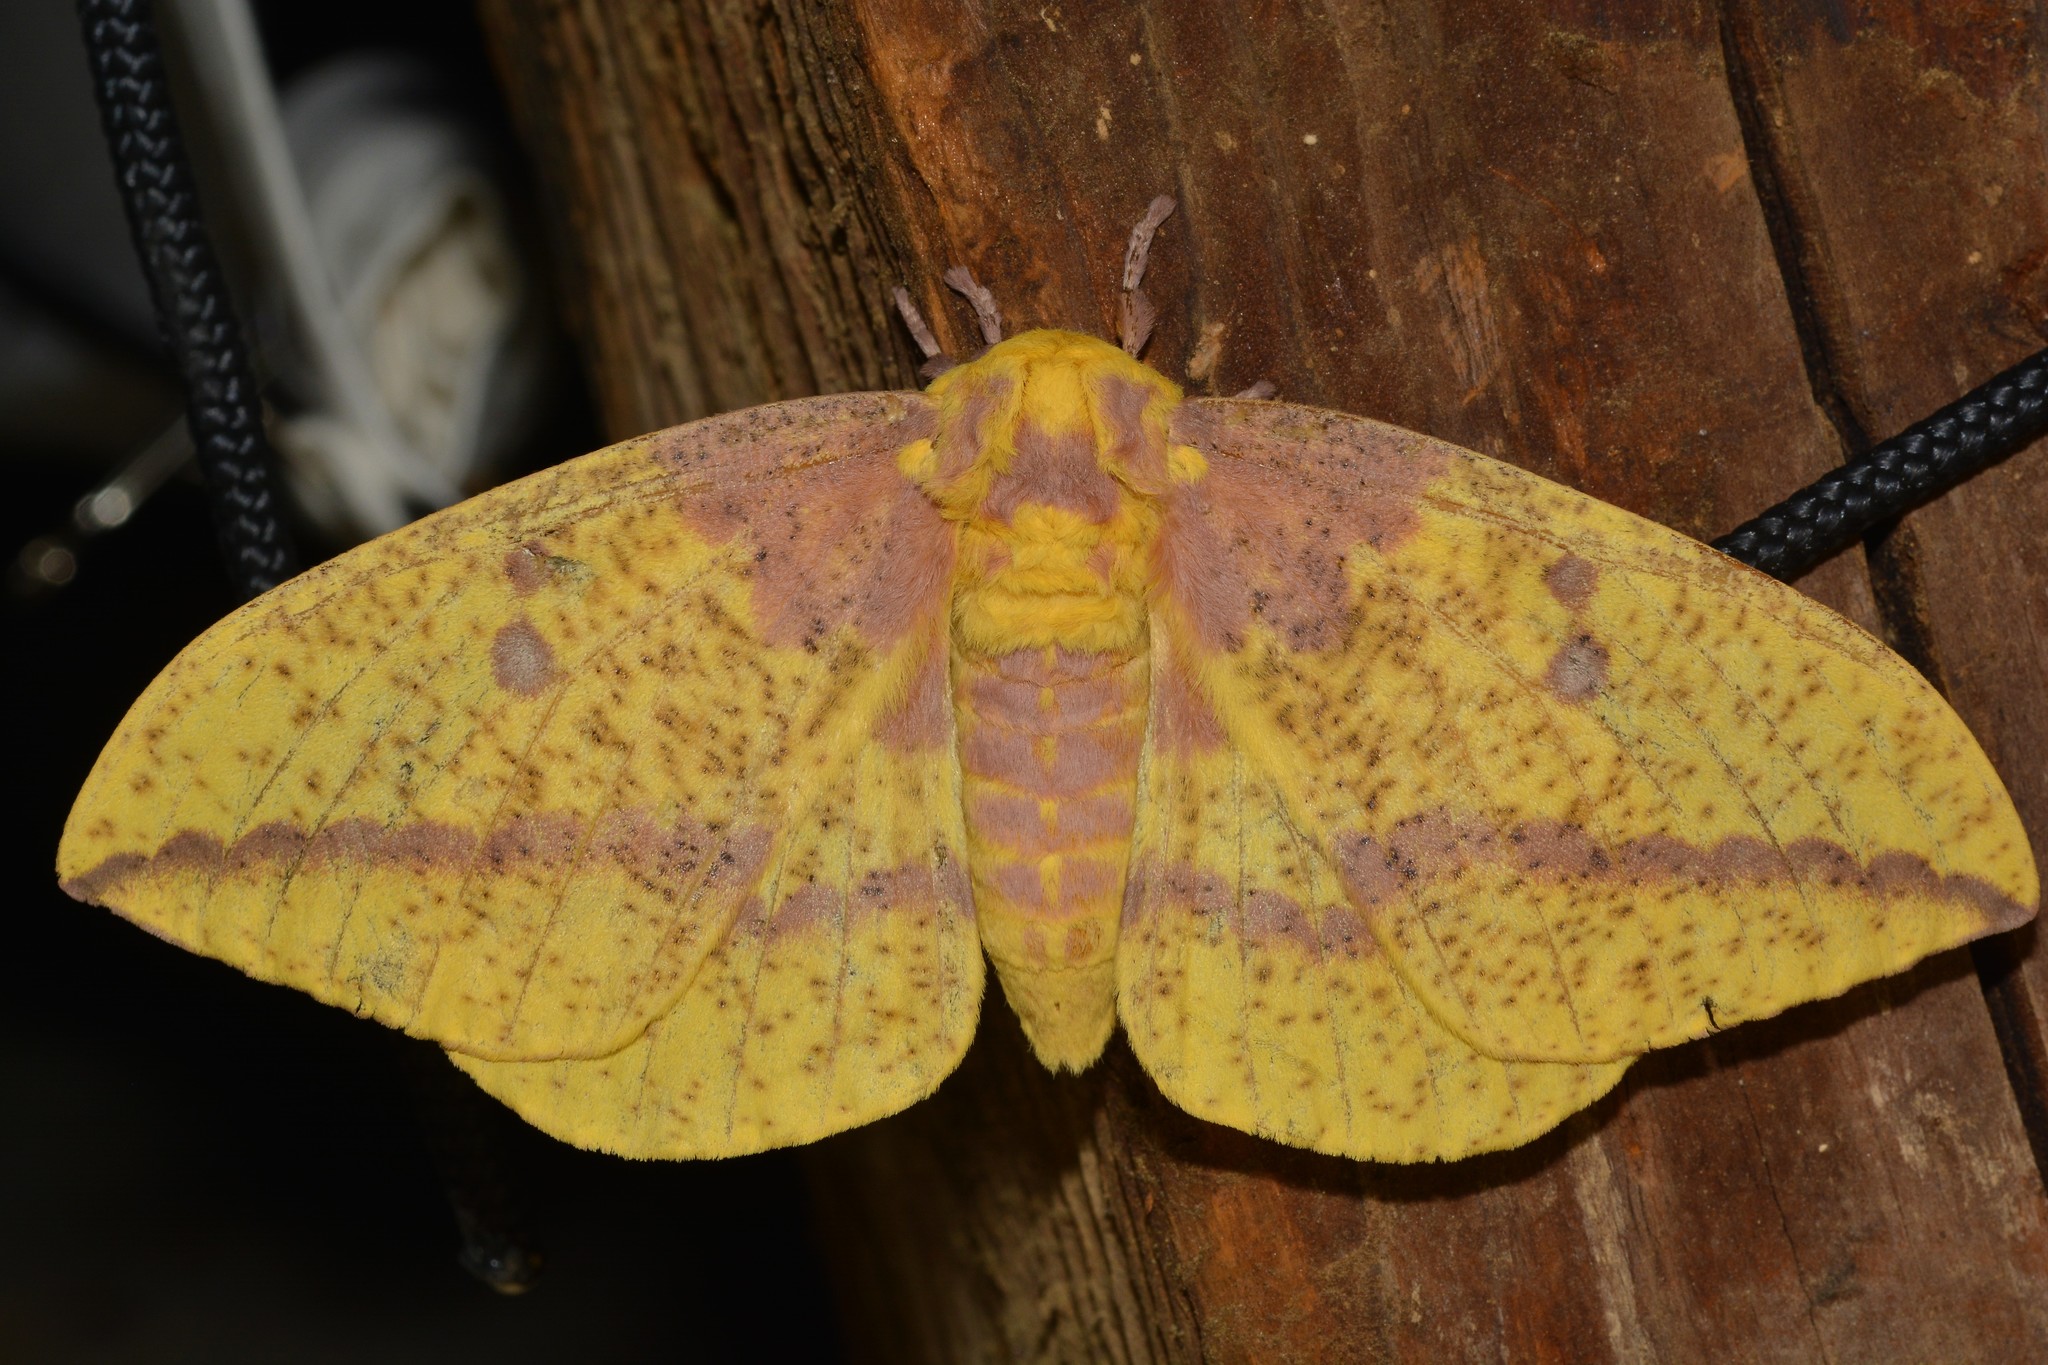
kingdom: Animalia
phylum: Arthropoda
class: Insecta
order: Lepidoptera
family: Saturniidae
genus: Eacles
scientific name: Eacles imperialis
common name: Imperial moth
